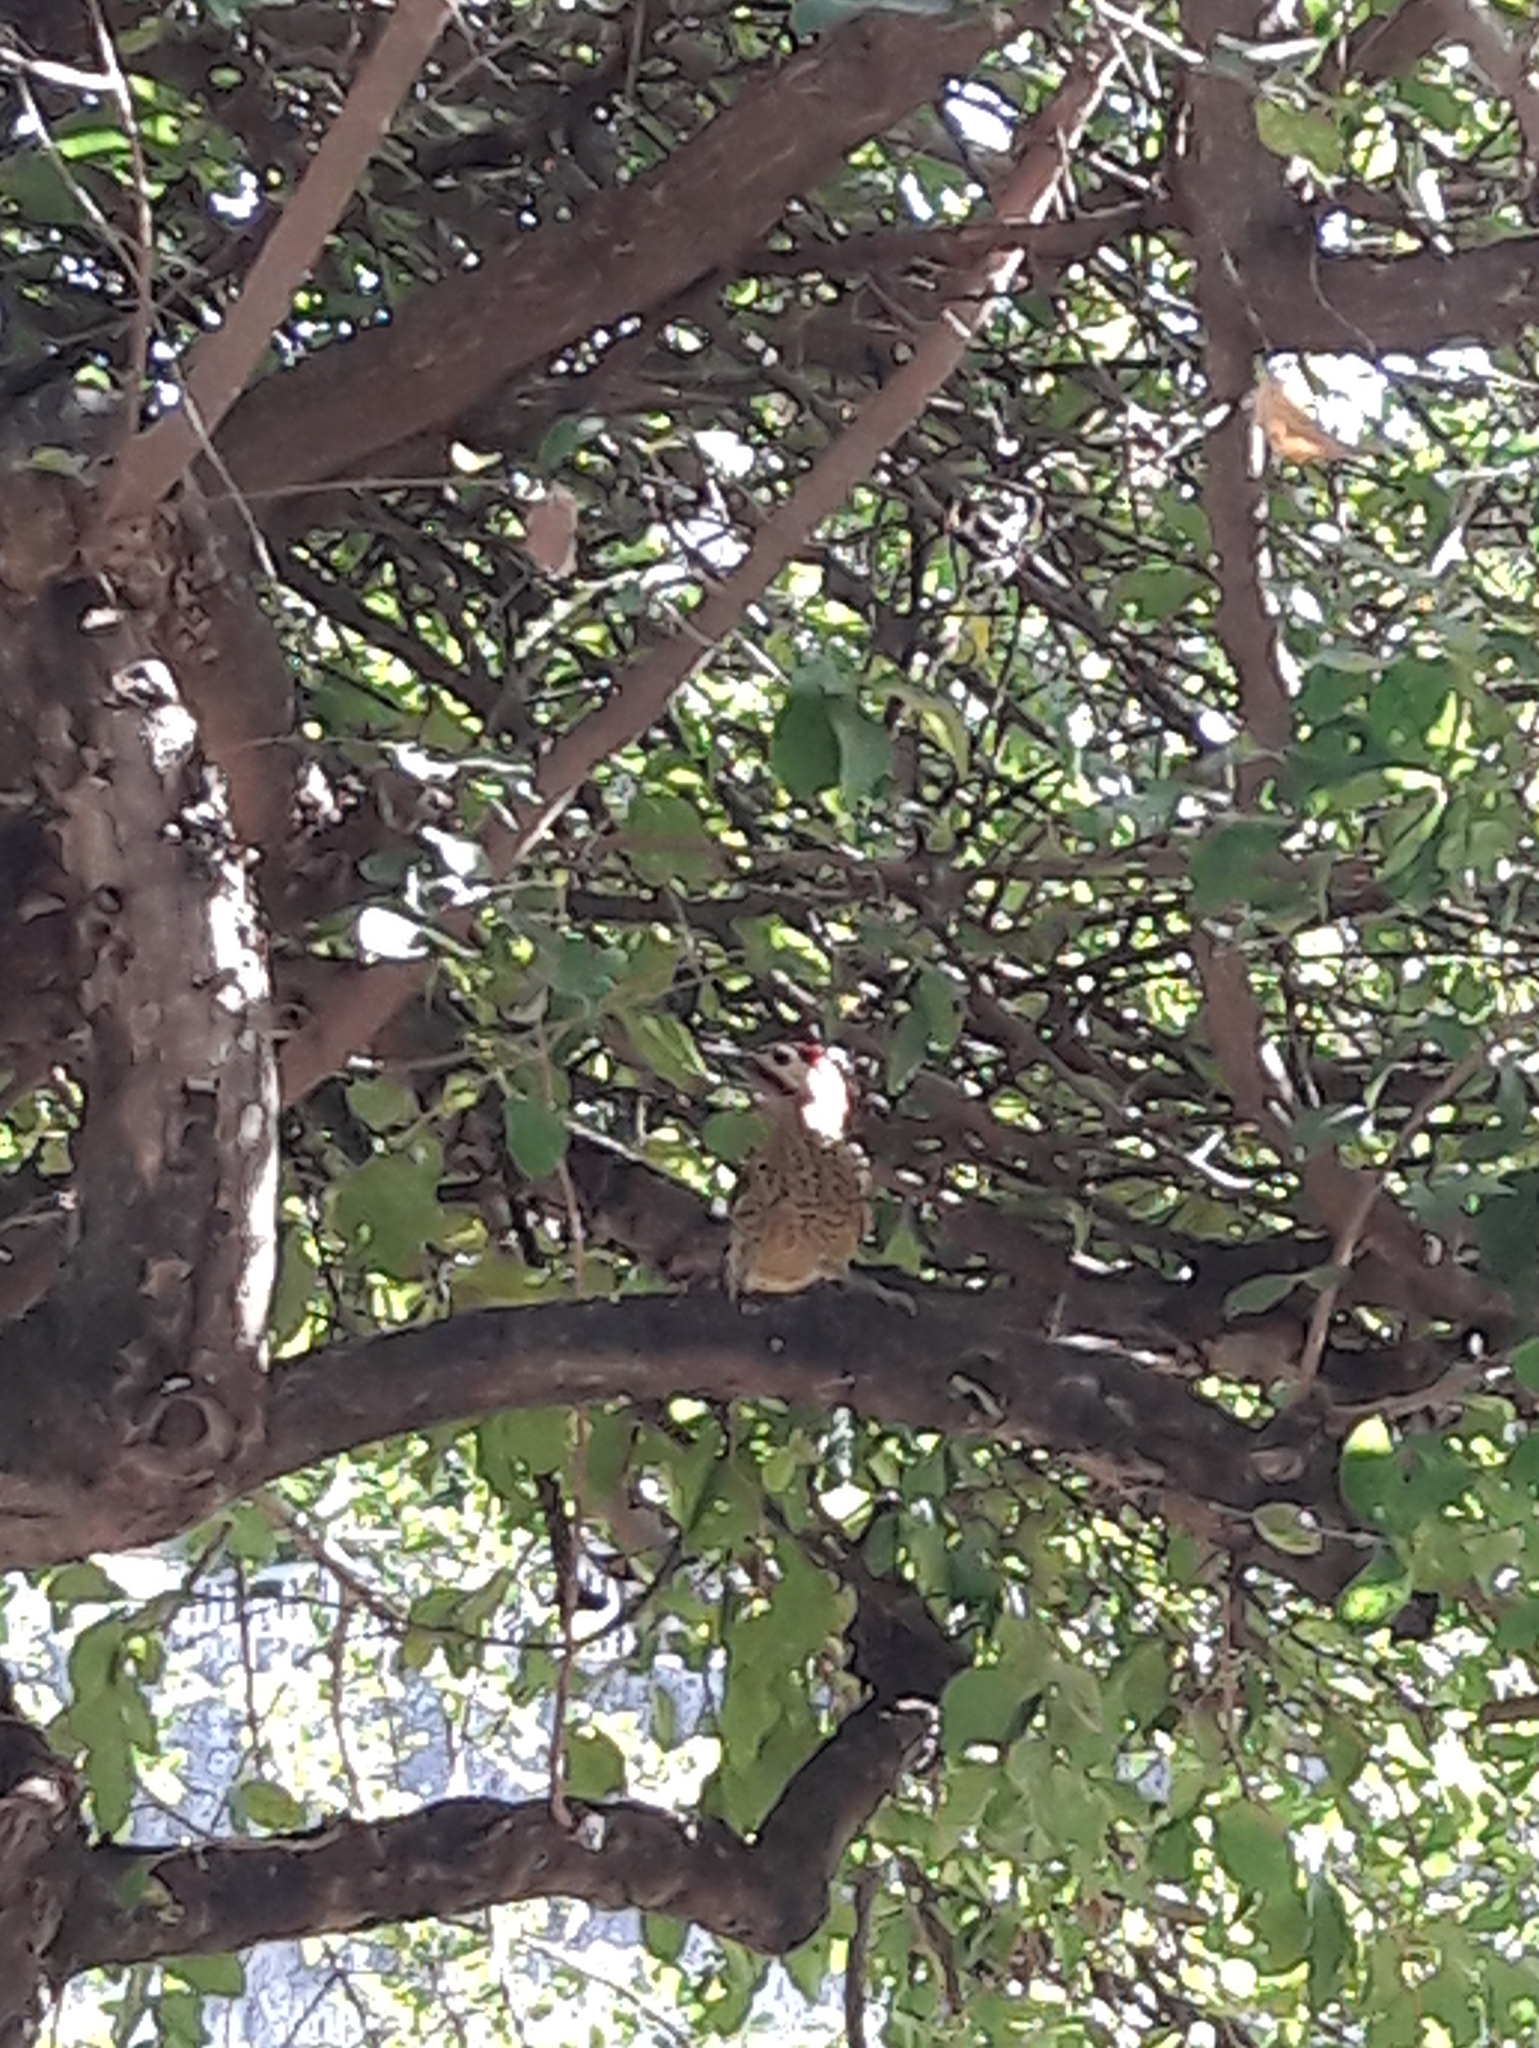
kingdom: Animalia
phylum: Chordata
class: Aves
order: Piciformes
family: Picidae
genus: Colaptes
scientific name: Colaptes melanochloros
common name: Green-barred woodpecker
